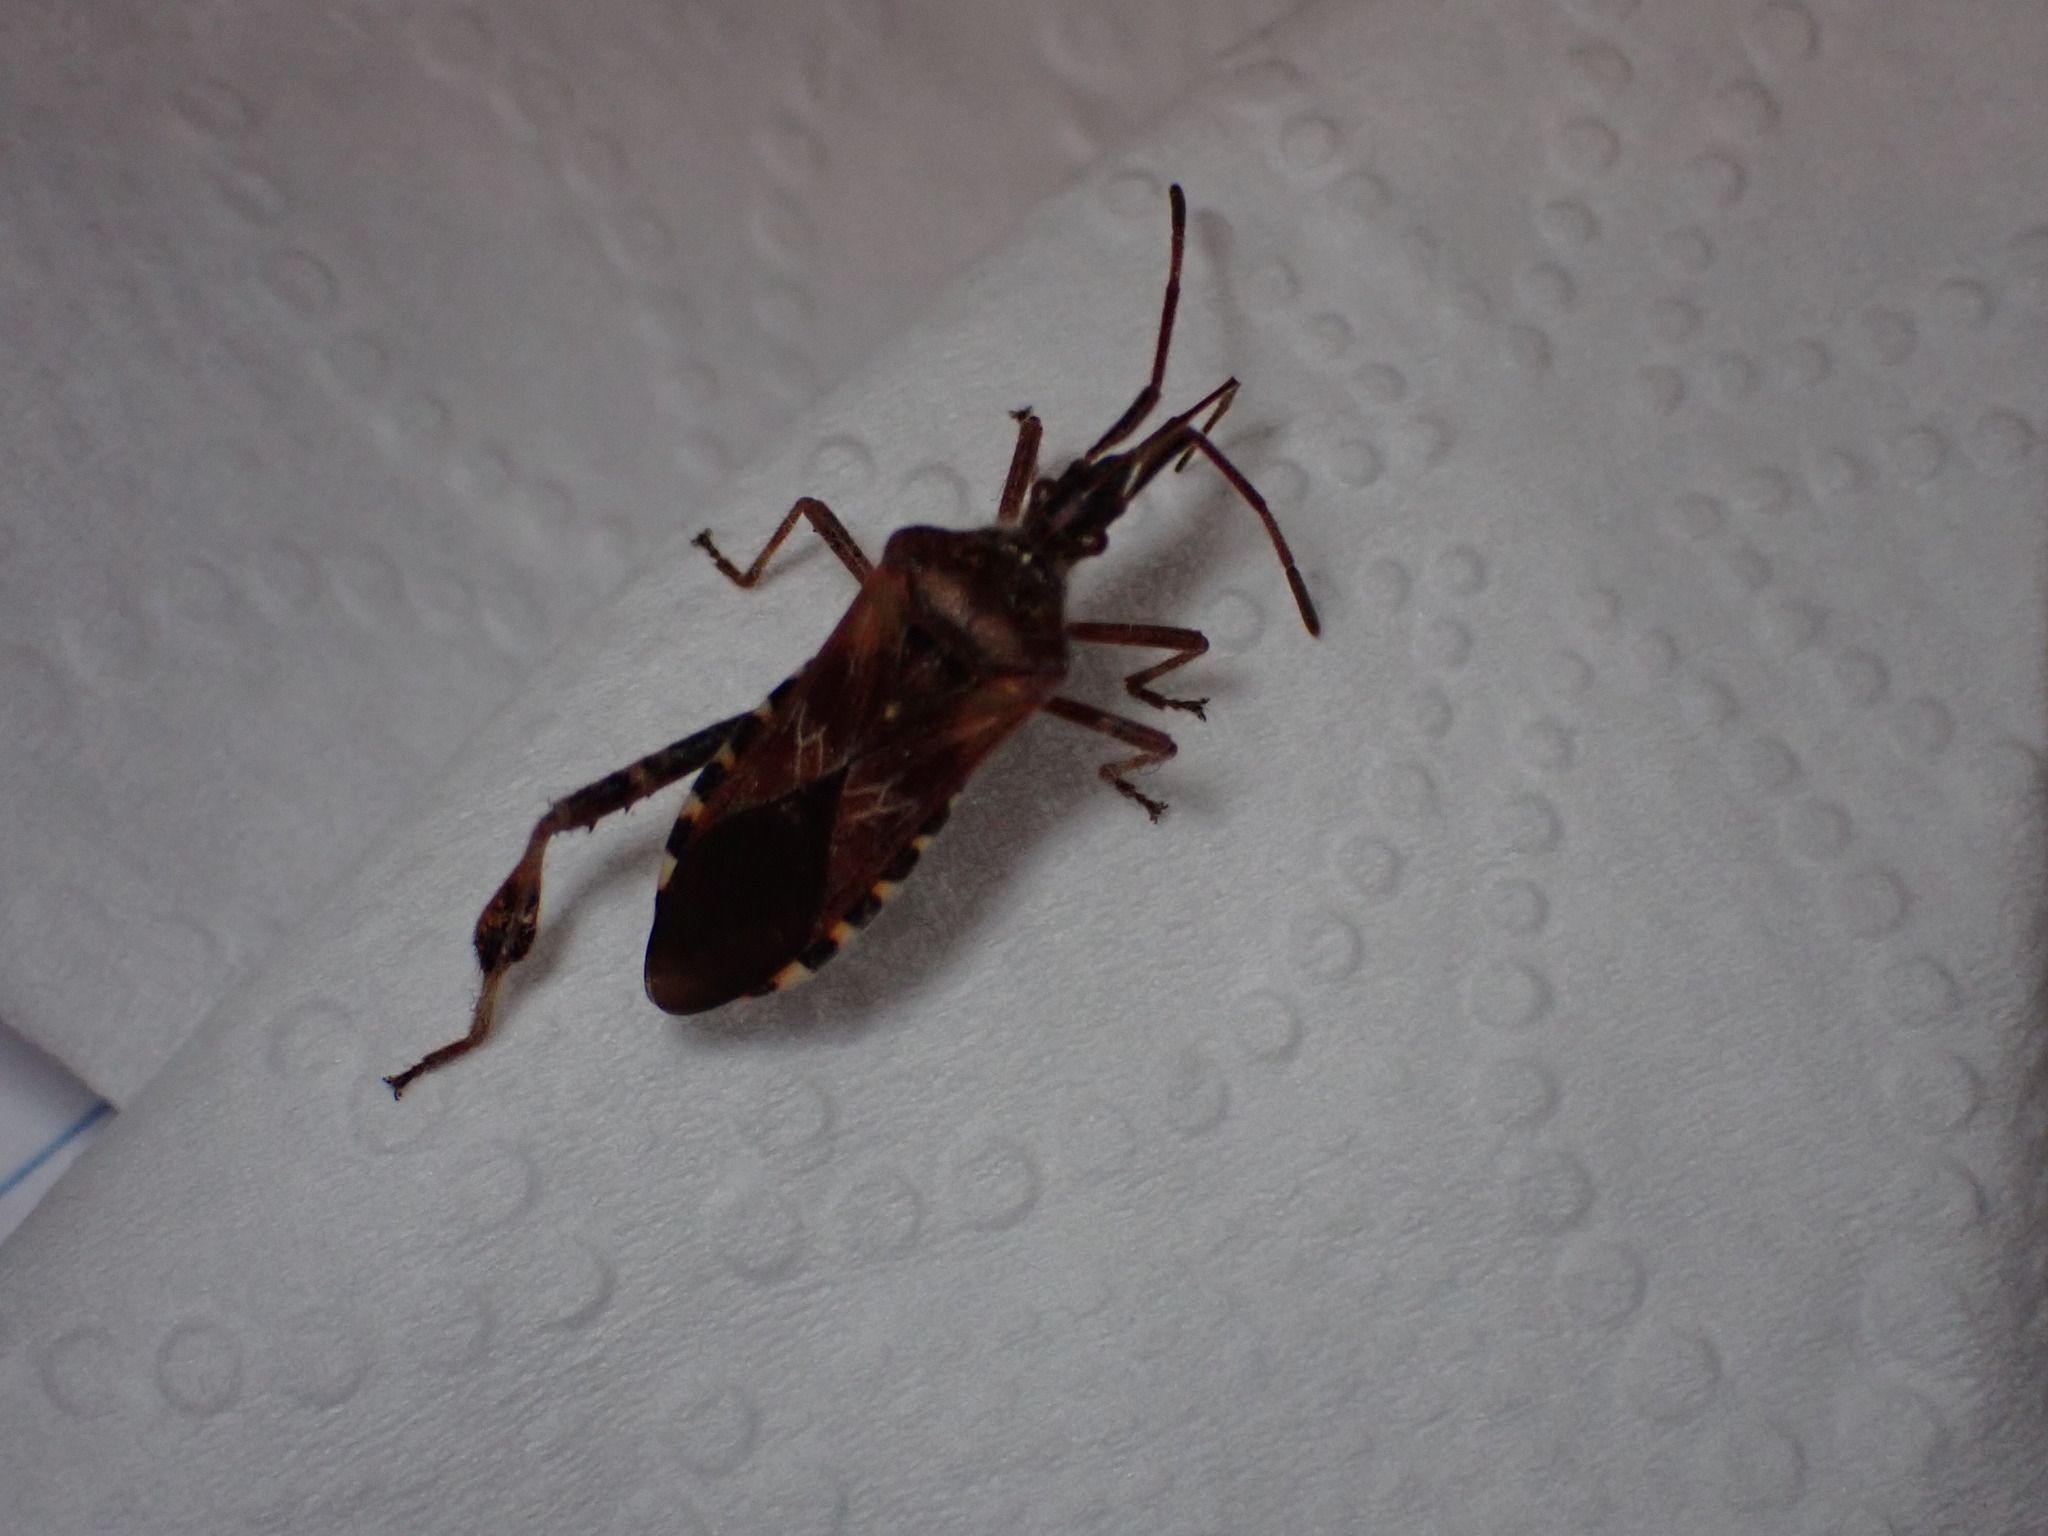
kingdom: Animalia
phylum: Arthropoda
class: Insecta
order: Hemiptera
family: Coreidae
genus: Leptoglossus
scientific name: Leptoglossus occidentalis
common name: Western conifer-seed bug
